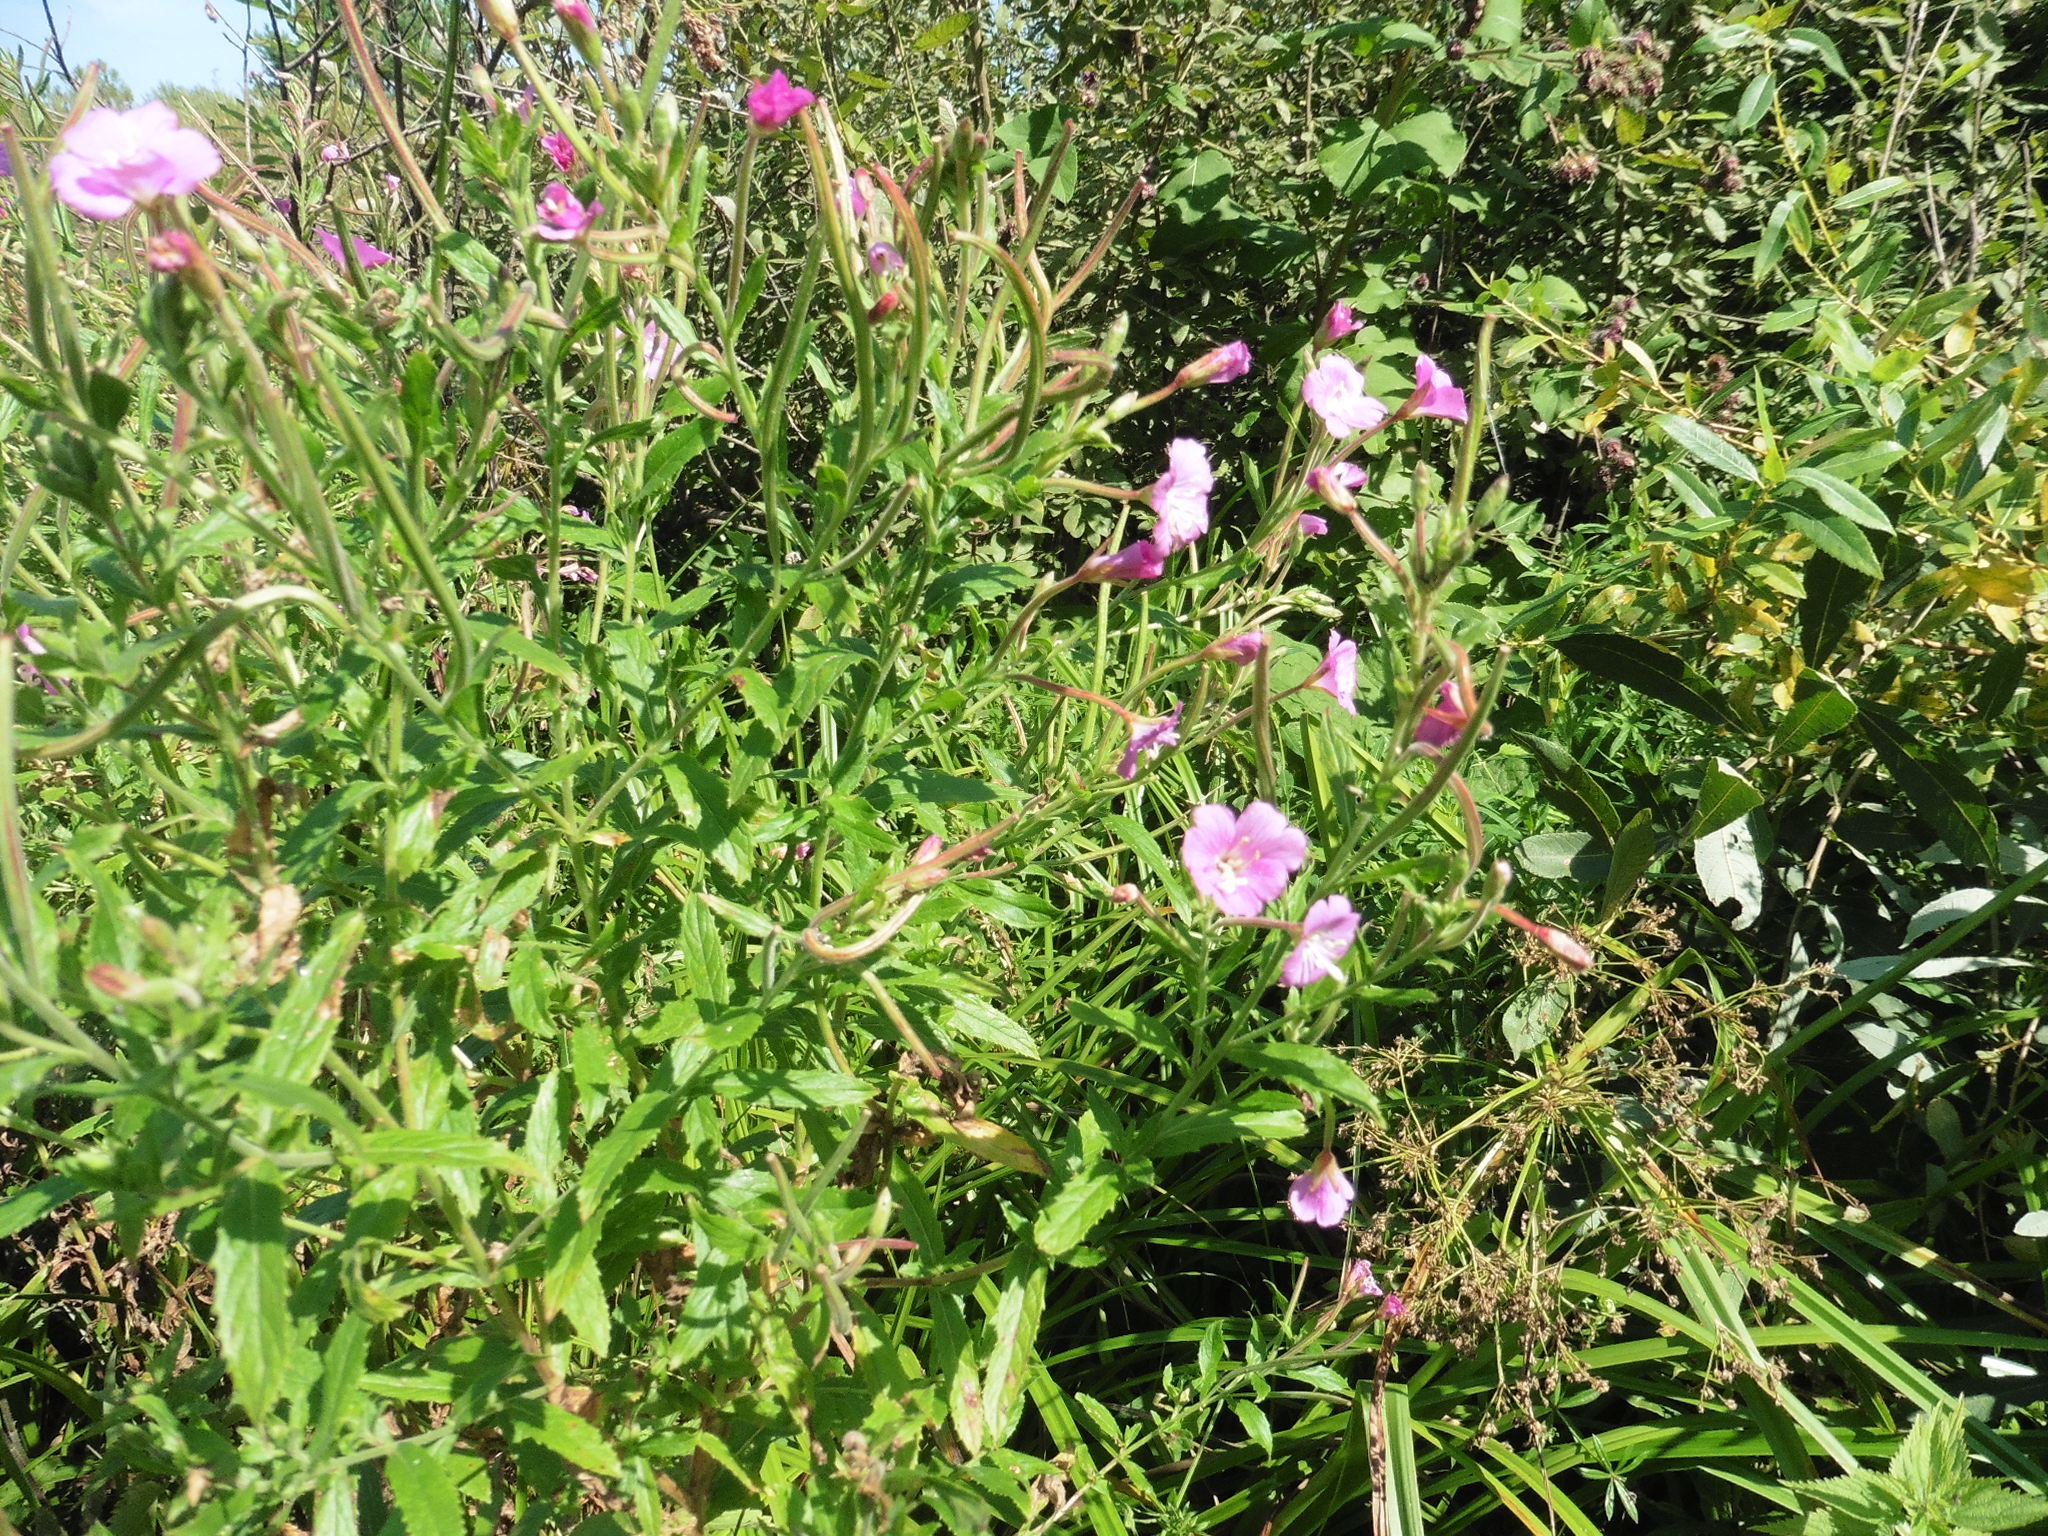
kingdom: Plantae
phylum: Tracheophyta
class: Magnoliopsida
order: Myrtales
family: Onagraceae
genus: Epilobium
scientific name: Epilobium hirsutum
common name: Great willowherb
